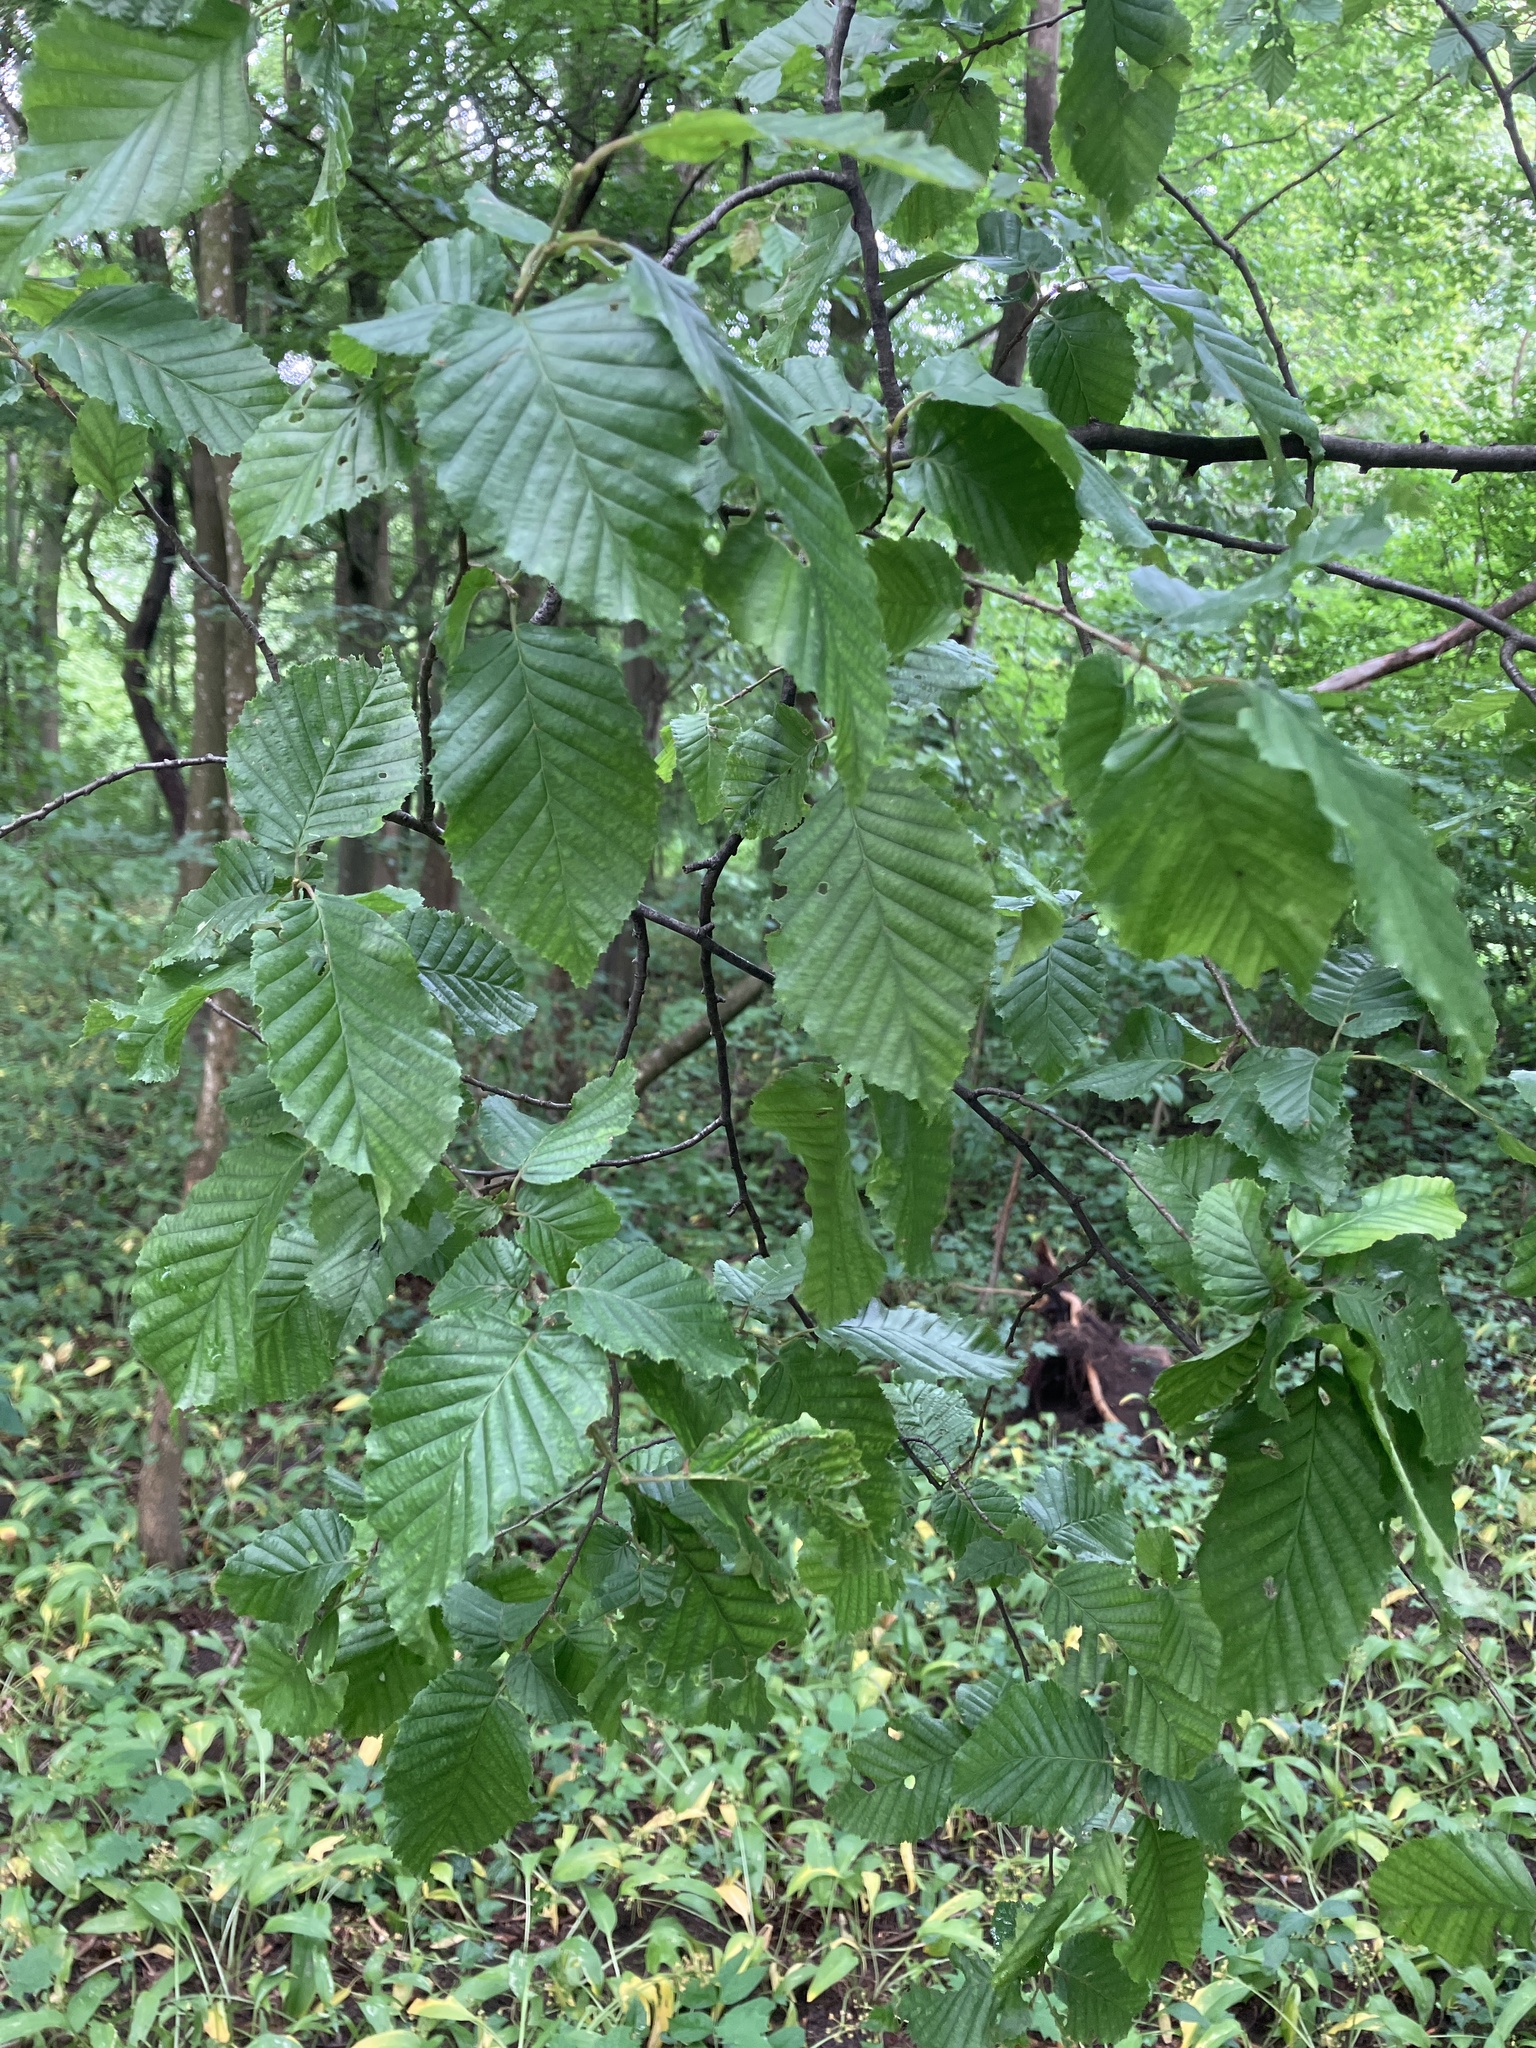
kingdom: Plantae
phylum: Tracheophyta
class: Magnoliopsida
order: Fagales
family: Betulaceae
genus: Carpinus
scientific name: Carpinus betulus
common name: Hornbeam
